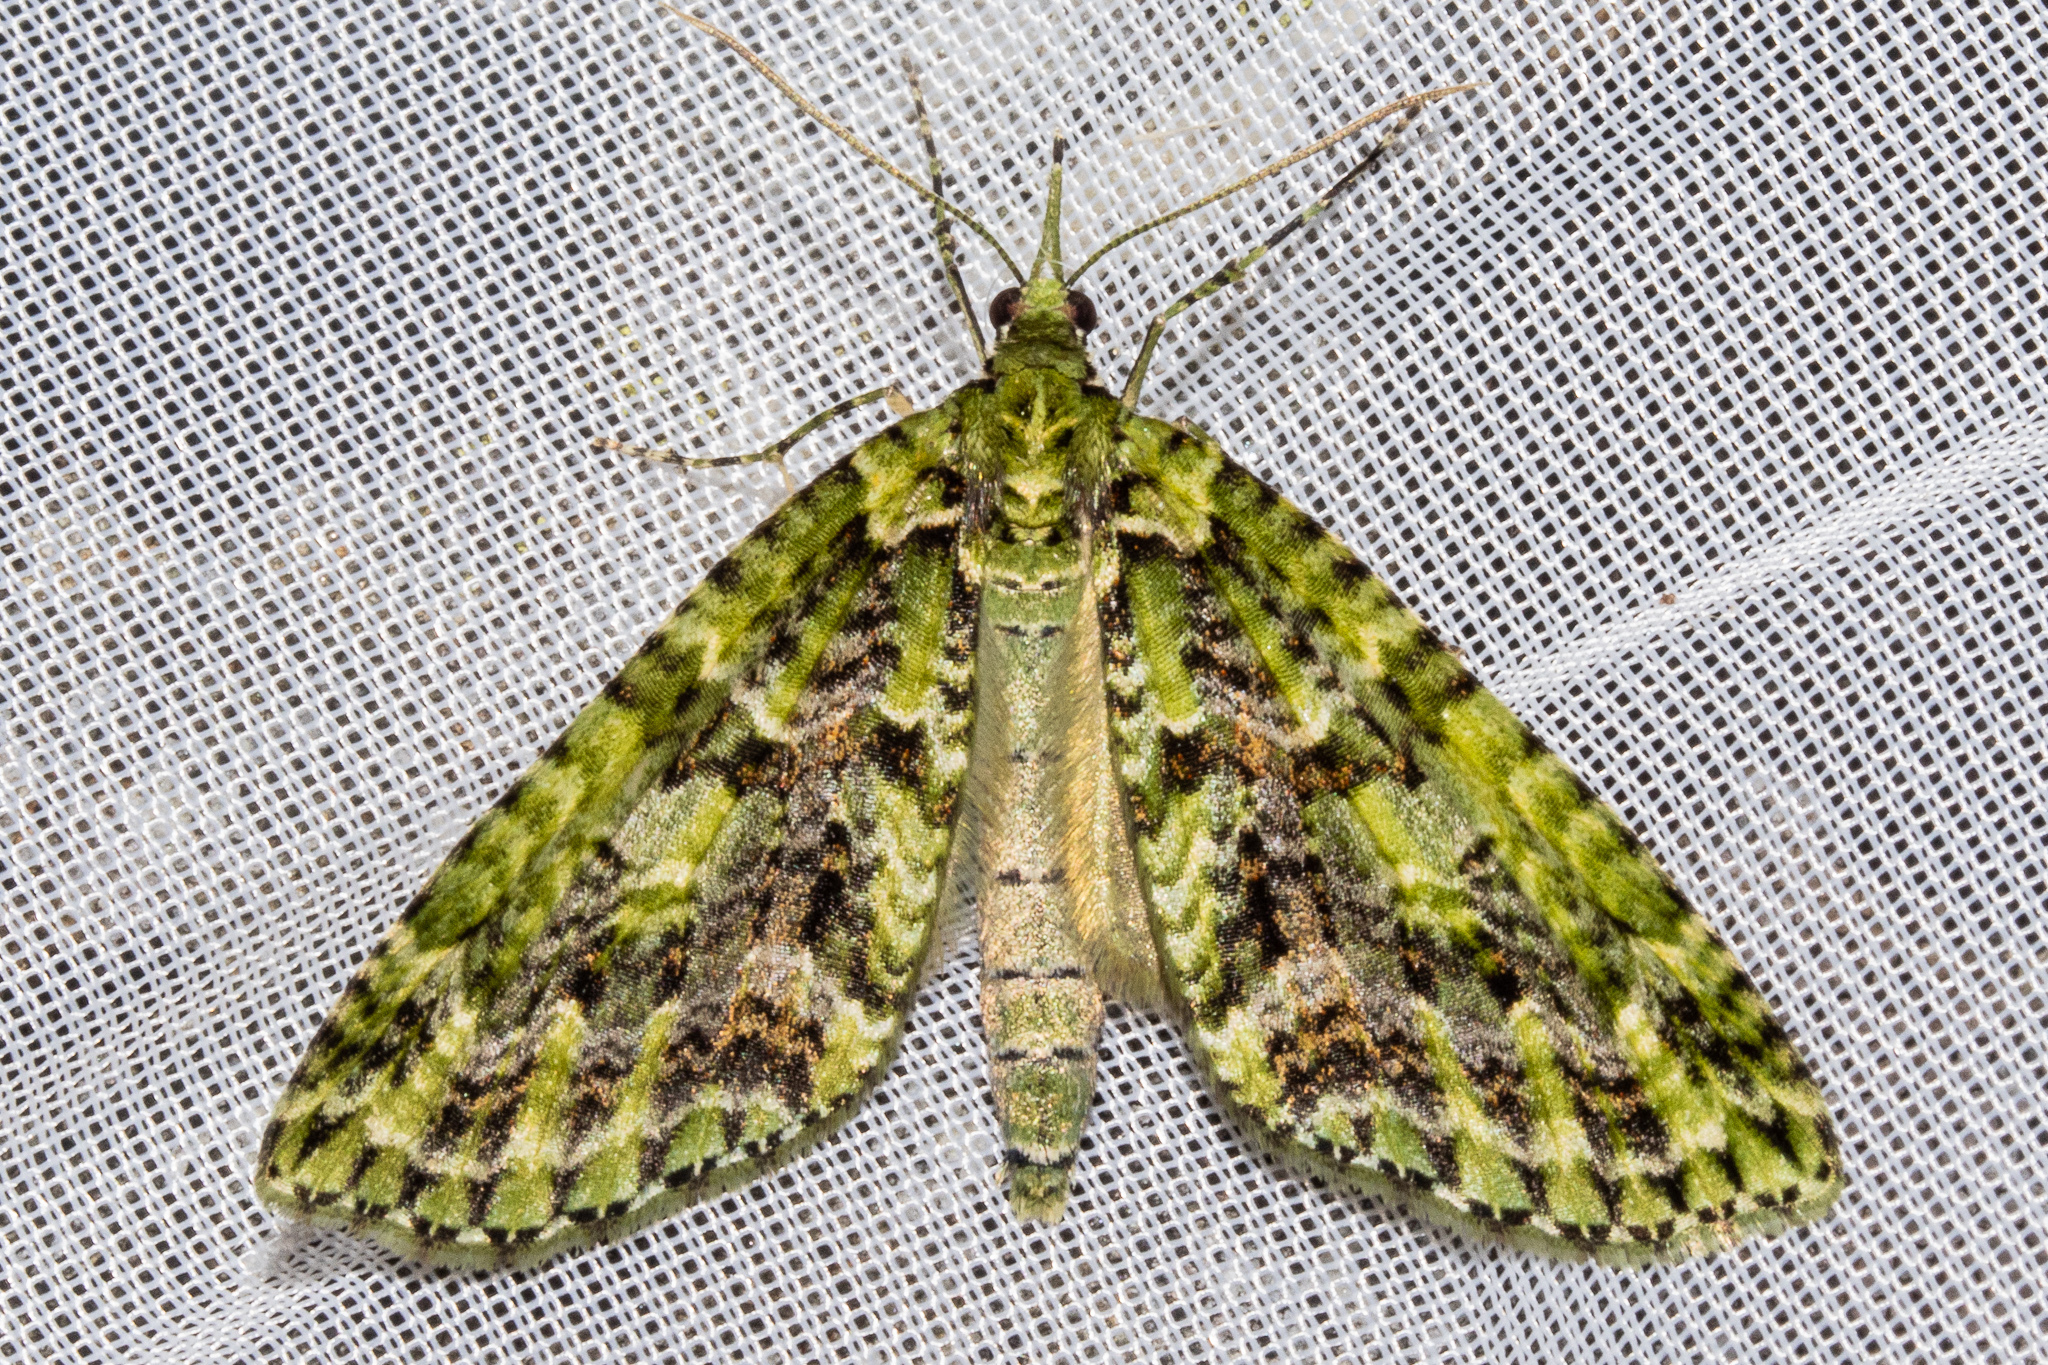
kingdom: Animalia
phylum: Arthropoda
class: Insecta
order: Lepidoptera
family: Geometridae
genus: Tatosoma
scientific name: Tatosoma tipulata
